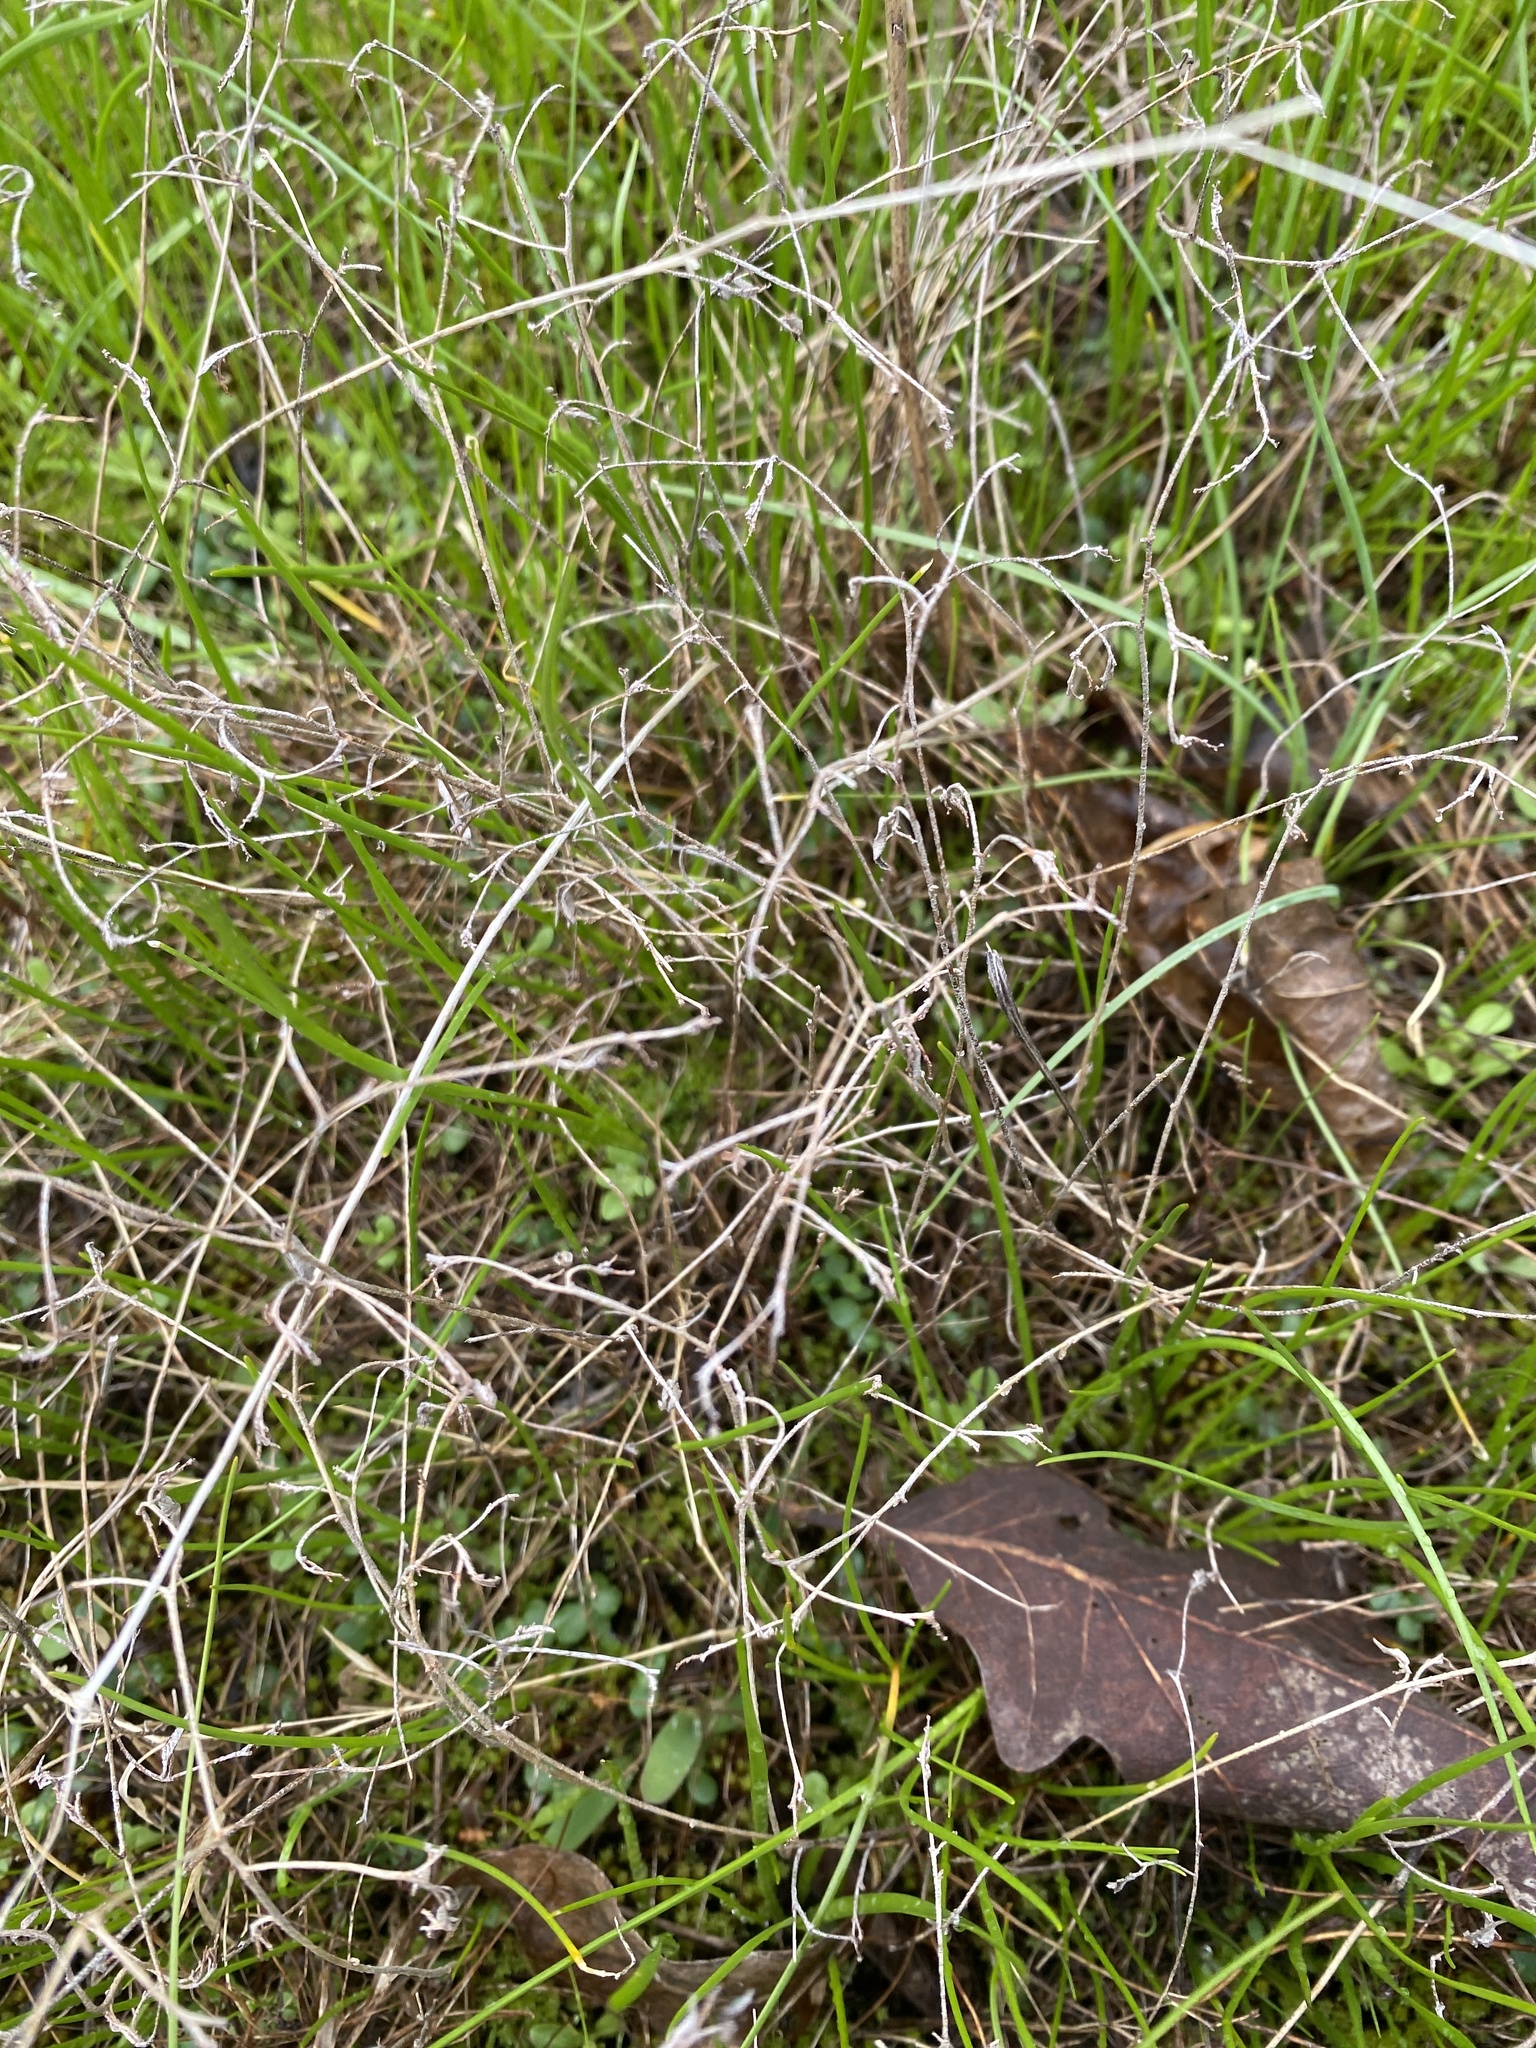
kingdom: Plantae
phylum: Tracheophyta
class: Magnoliopsida
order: Malpighiales
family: Euphorbiaceae
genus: Croton
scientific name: Croton michauxii
